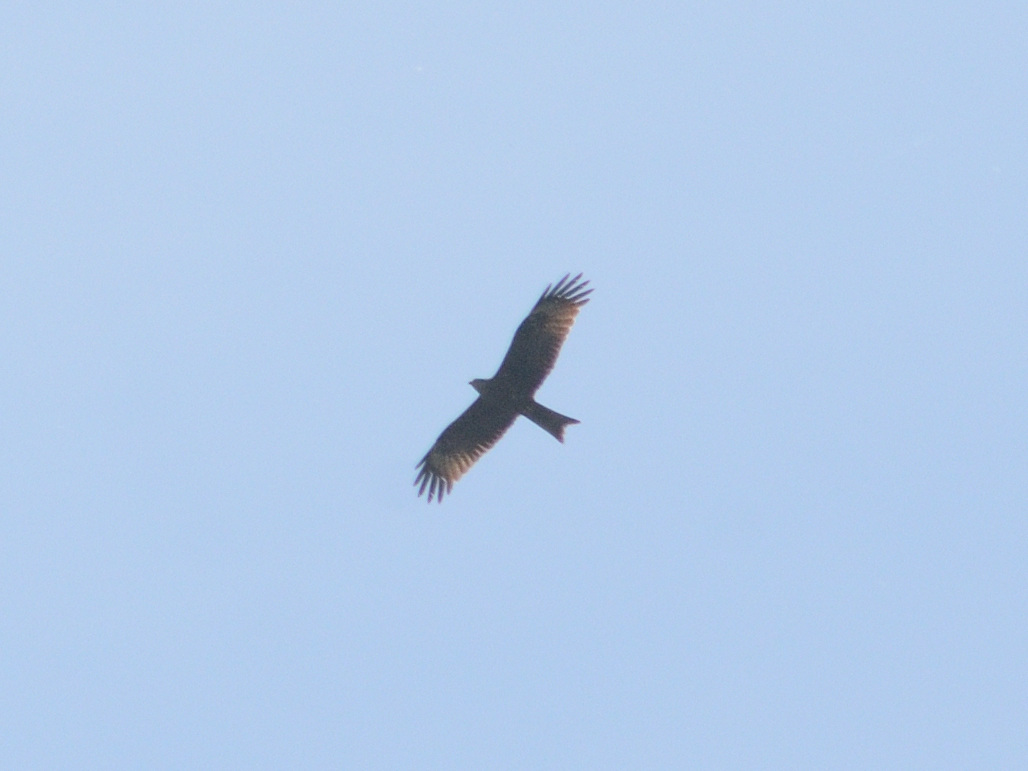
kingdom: Animalia
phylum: Chordata
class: Aves
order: Accipitriformes
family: Accipitridae
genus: Milvus
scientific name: Milvus migrans
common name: Black kite
